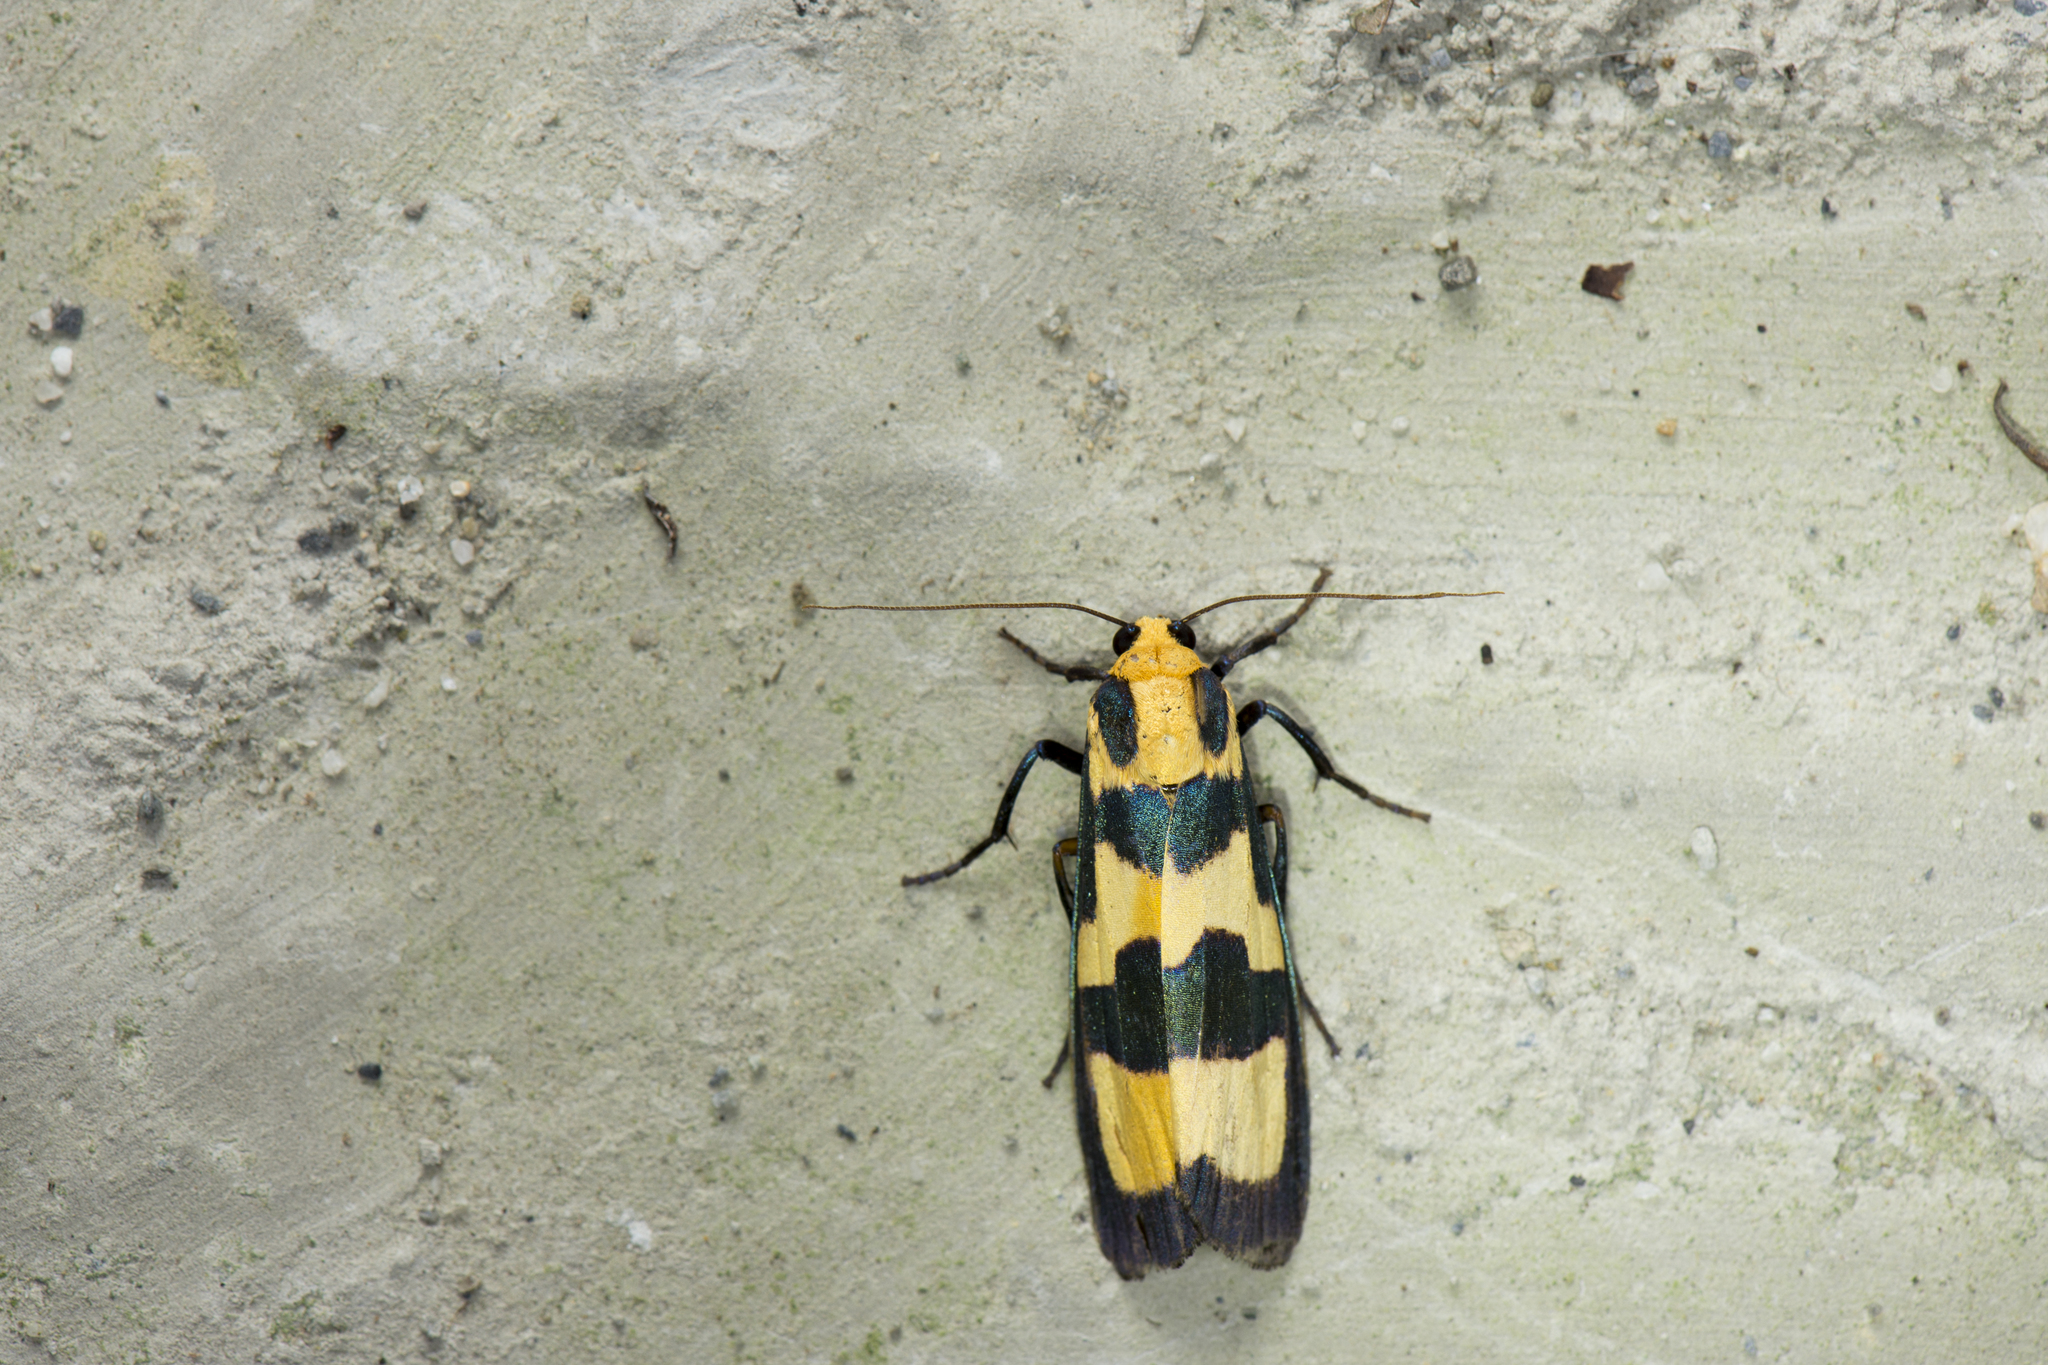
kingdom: Animalia
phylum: Arthropoda
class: Insecta
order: Lepidoptera
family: Erebidae
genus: Chrysaeglia
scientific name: Chrysaeglia magnifica
